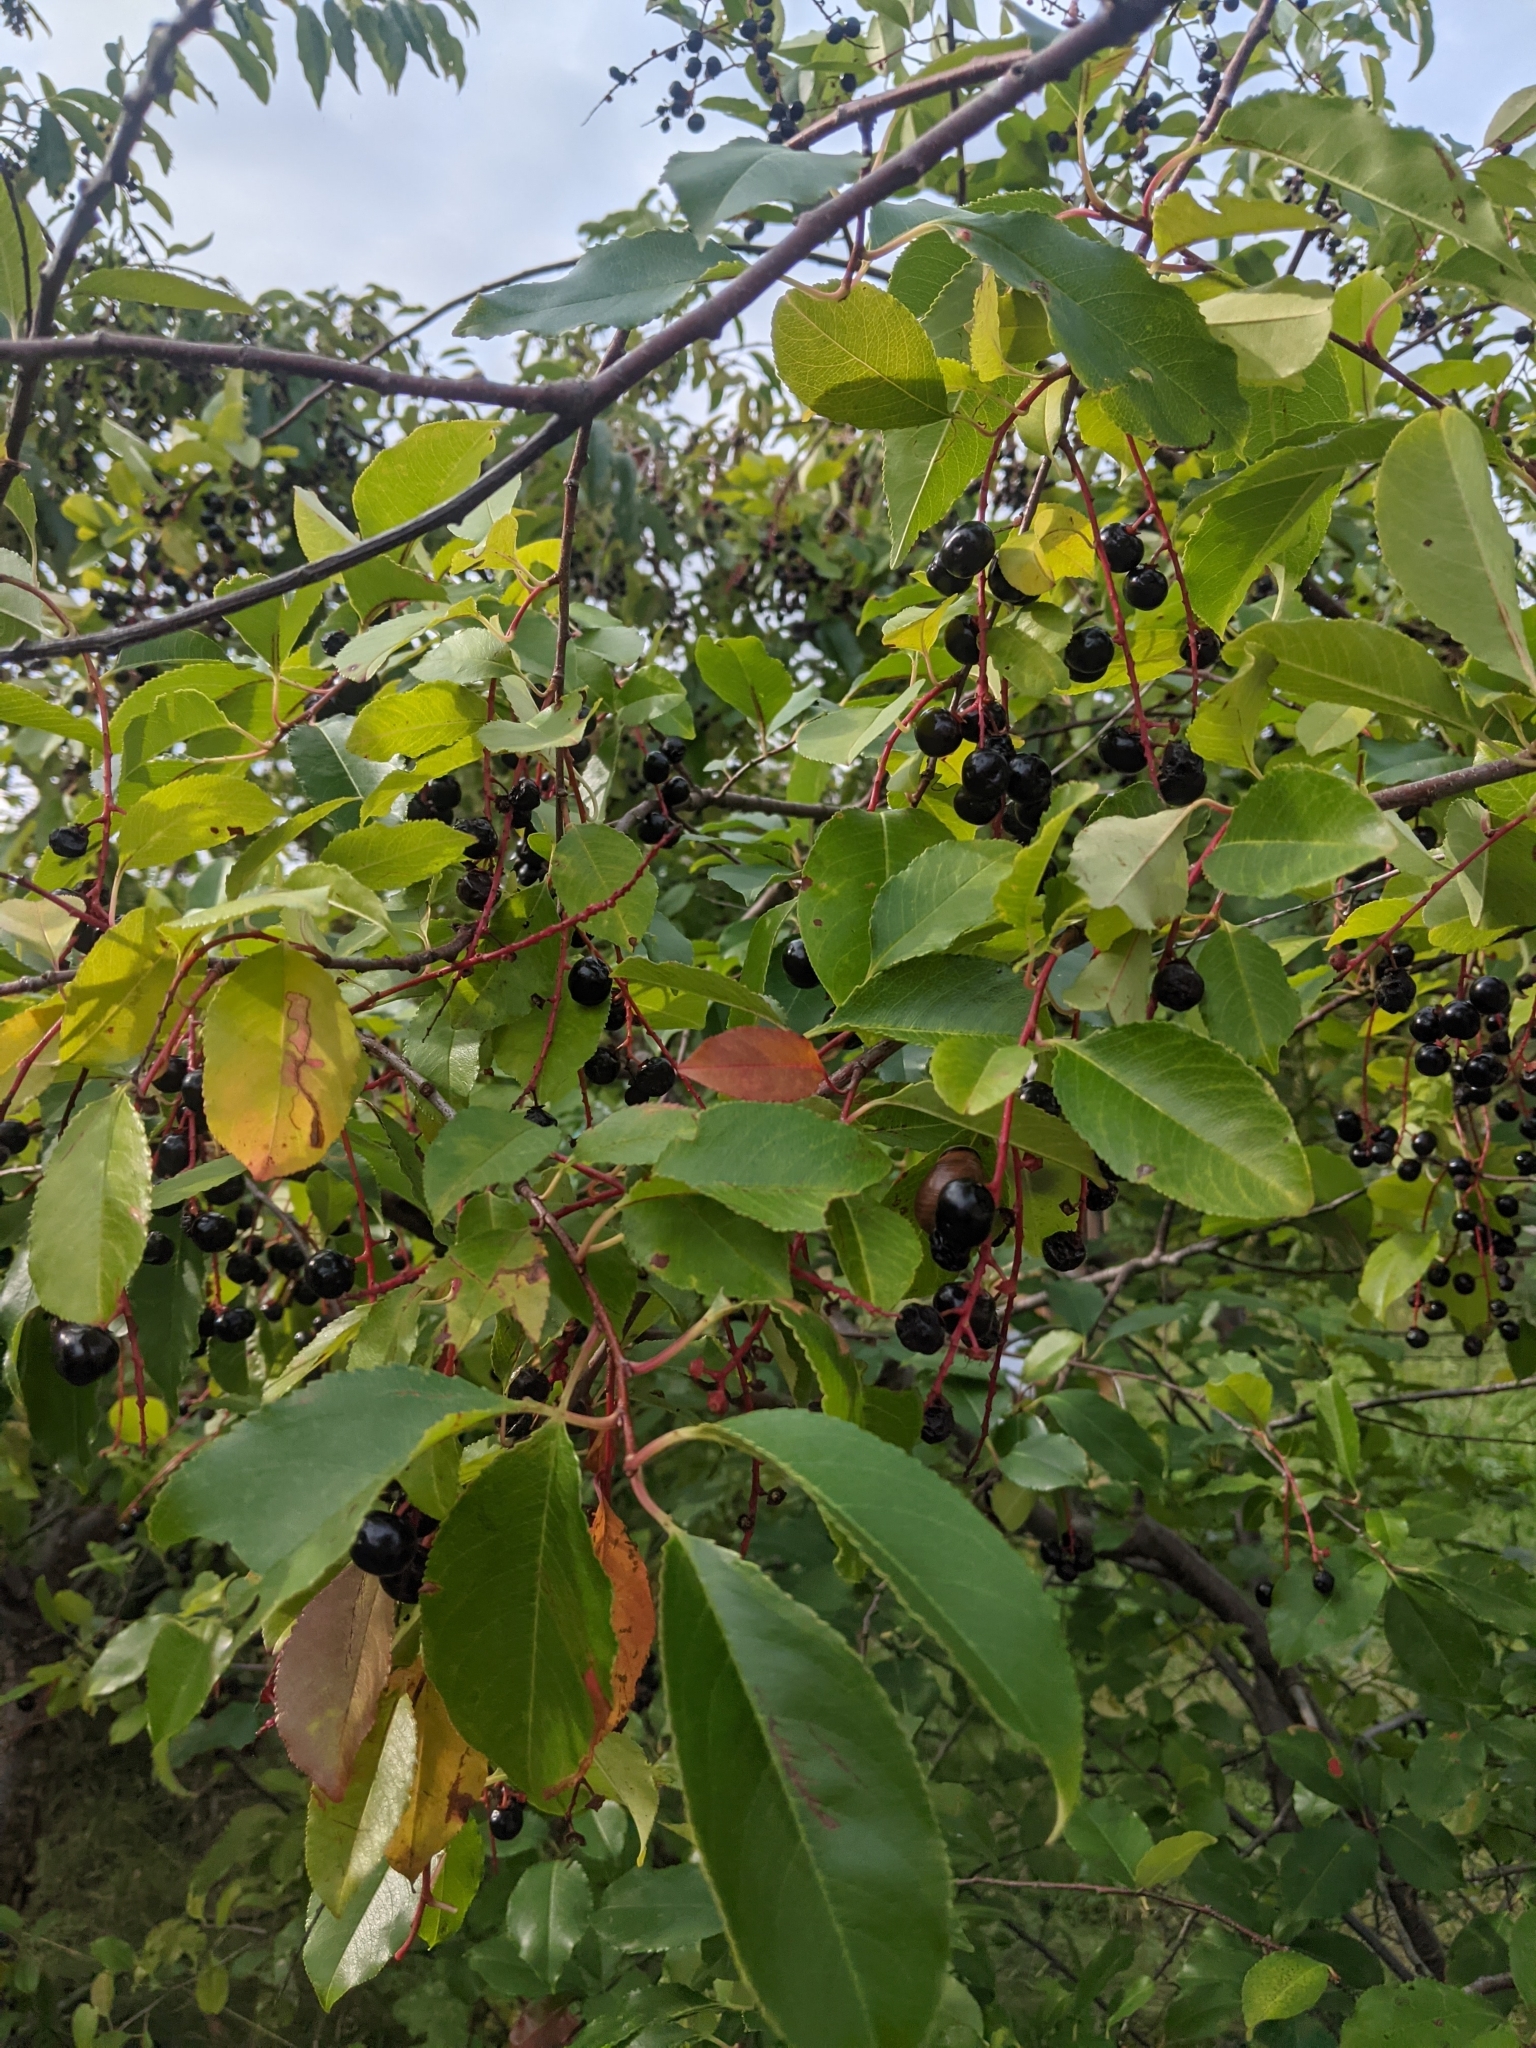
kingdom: Plantae
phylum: Tracheophyta
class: Magnoliopsida
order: Rosales
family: Rosaceae
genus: Prunus
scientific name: Prunus serotina
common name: Black cherry
